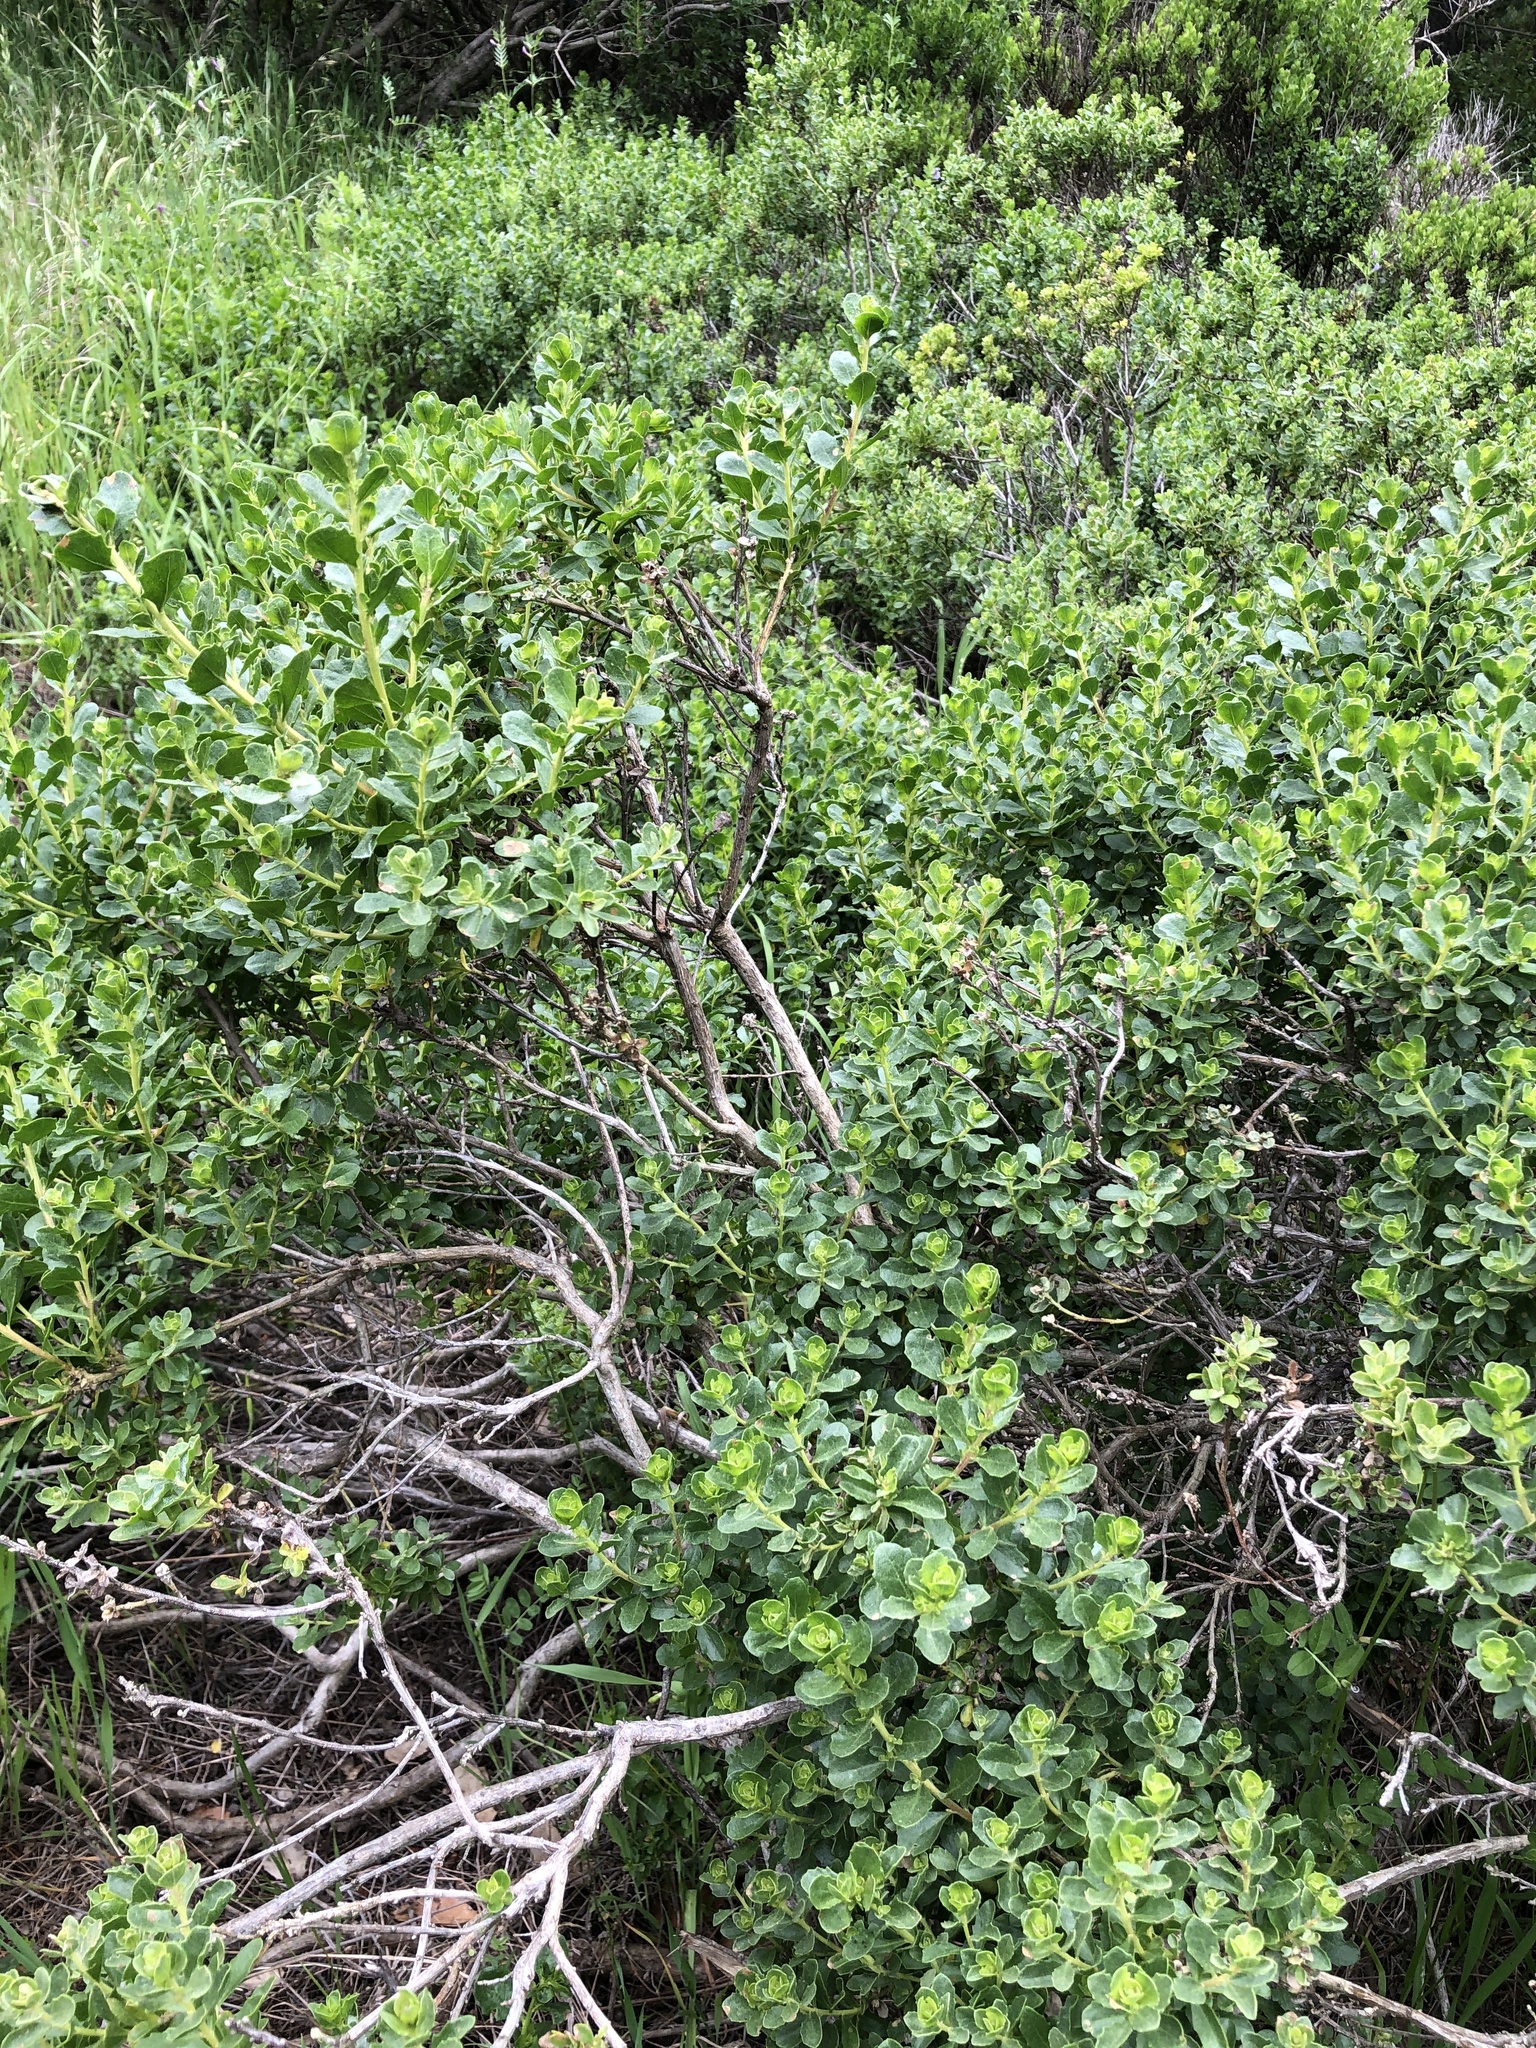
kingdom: Plantae
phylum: Tracheophyta
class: Magnoliopsida
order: Asterales
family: Asteraceae
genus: Baccharis
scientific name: Baccharis pilularis
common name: Coyotebrush
